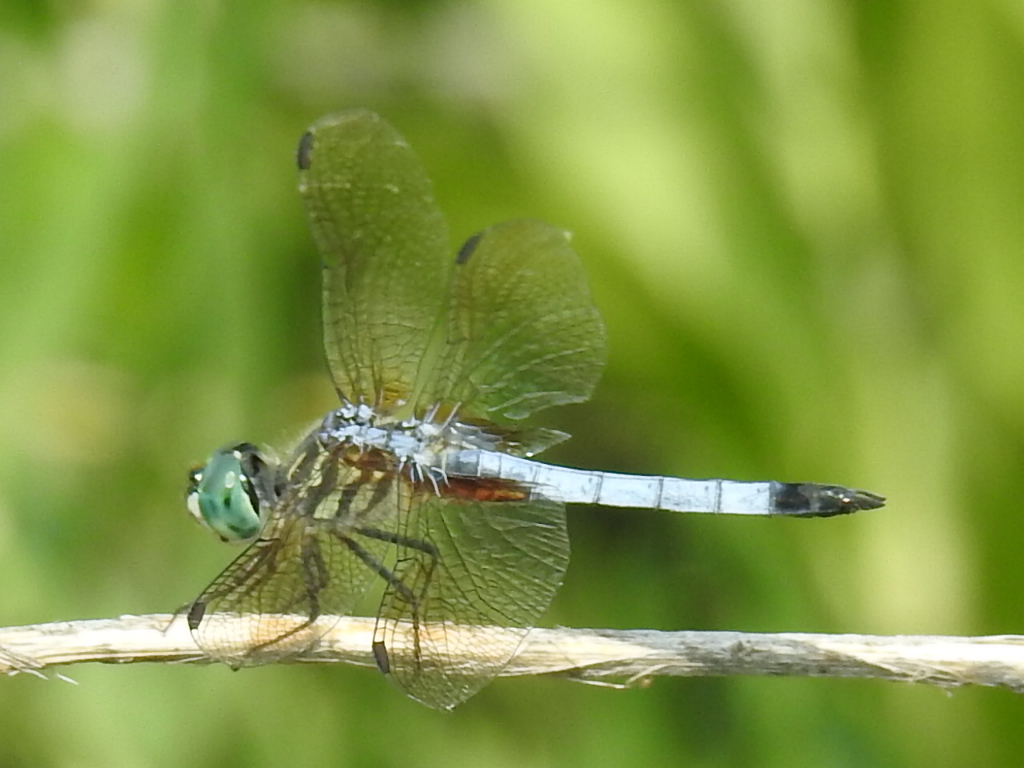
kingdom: Animalia
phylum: Arthropoda
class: Insecta
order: Odonata
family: Libellulidae
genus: Pachydiplax
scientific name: Pachydiplax longipennis
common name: Blue dasher
